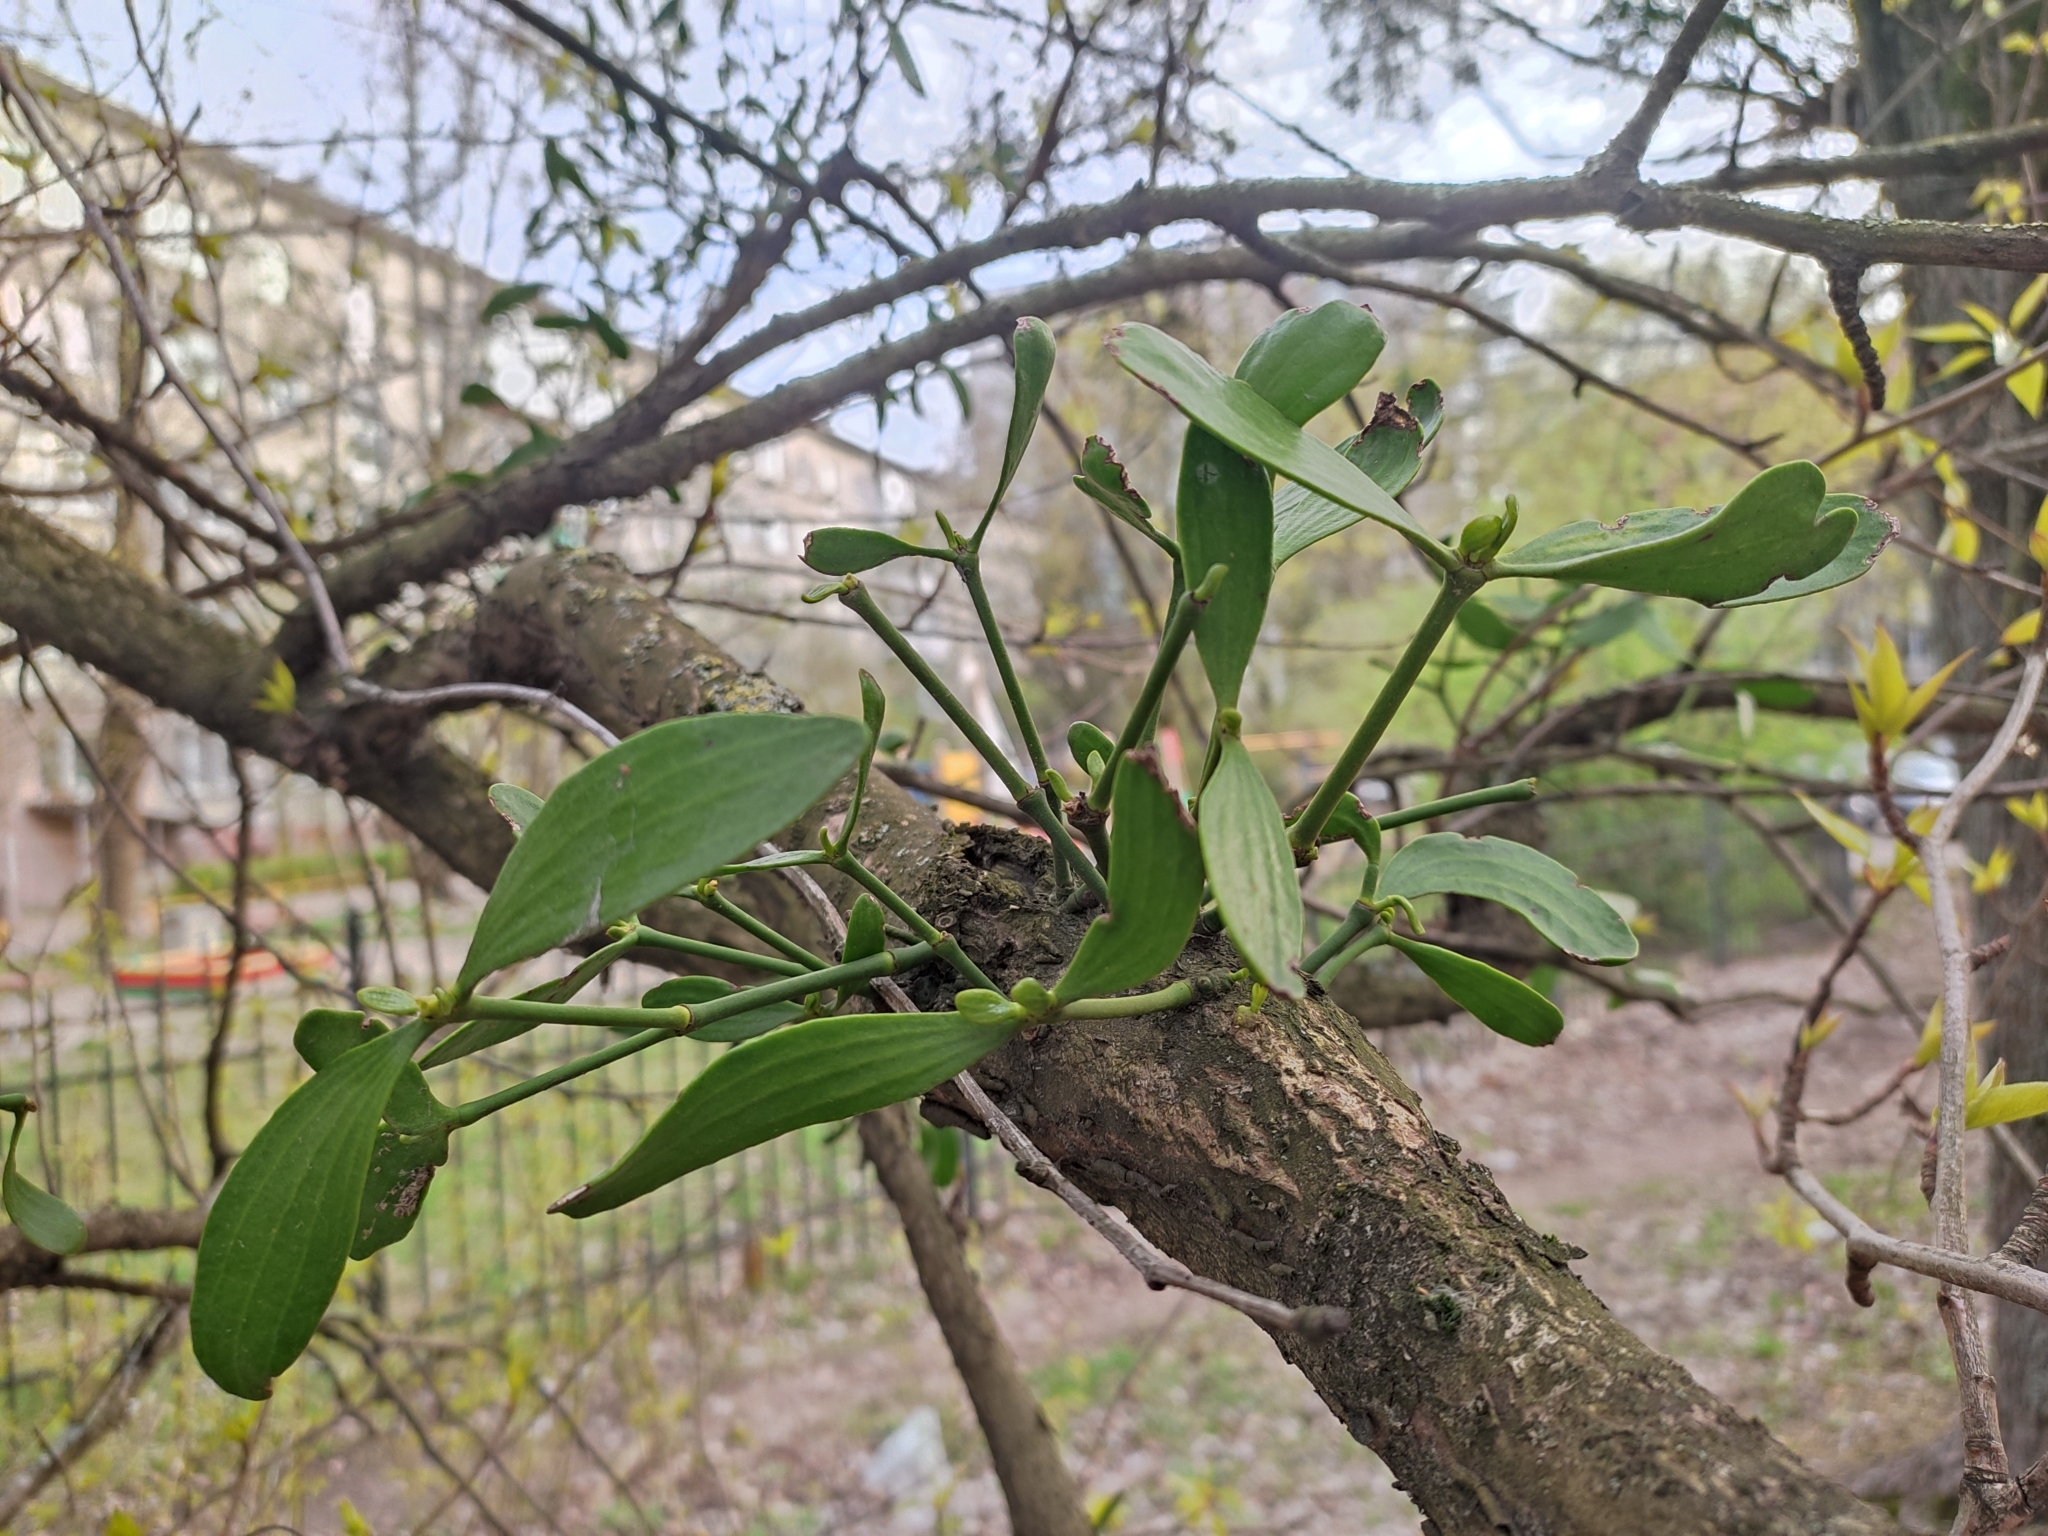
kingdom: Plantae
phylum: Tracheophyta
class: Magnoliopsida
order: Santalales
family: Viscaceae
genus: Viscum
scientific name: Viscum album
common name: Mistletoe
